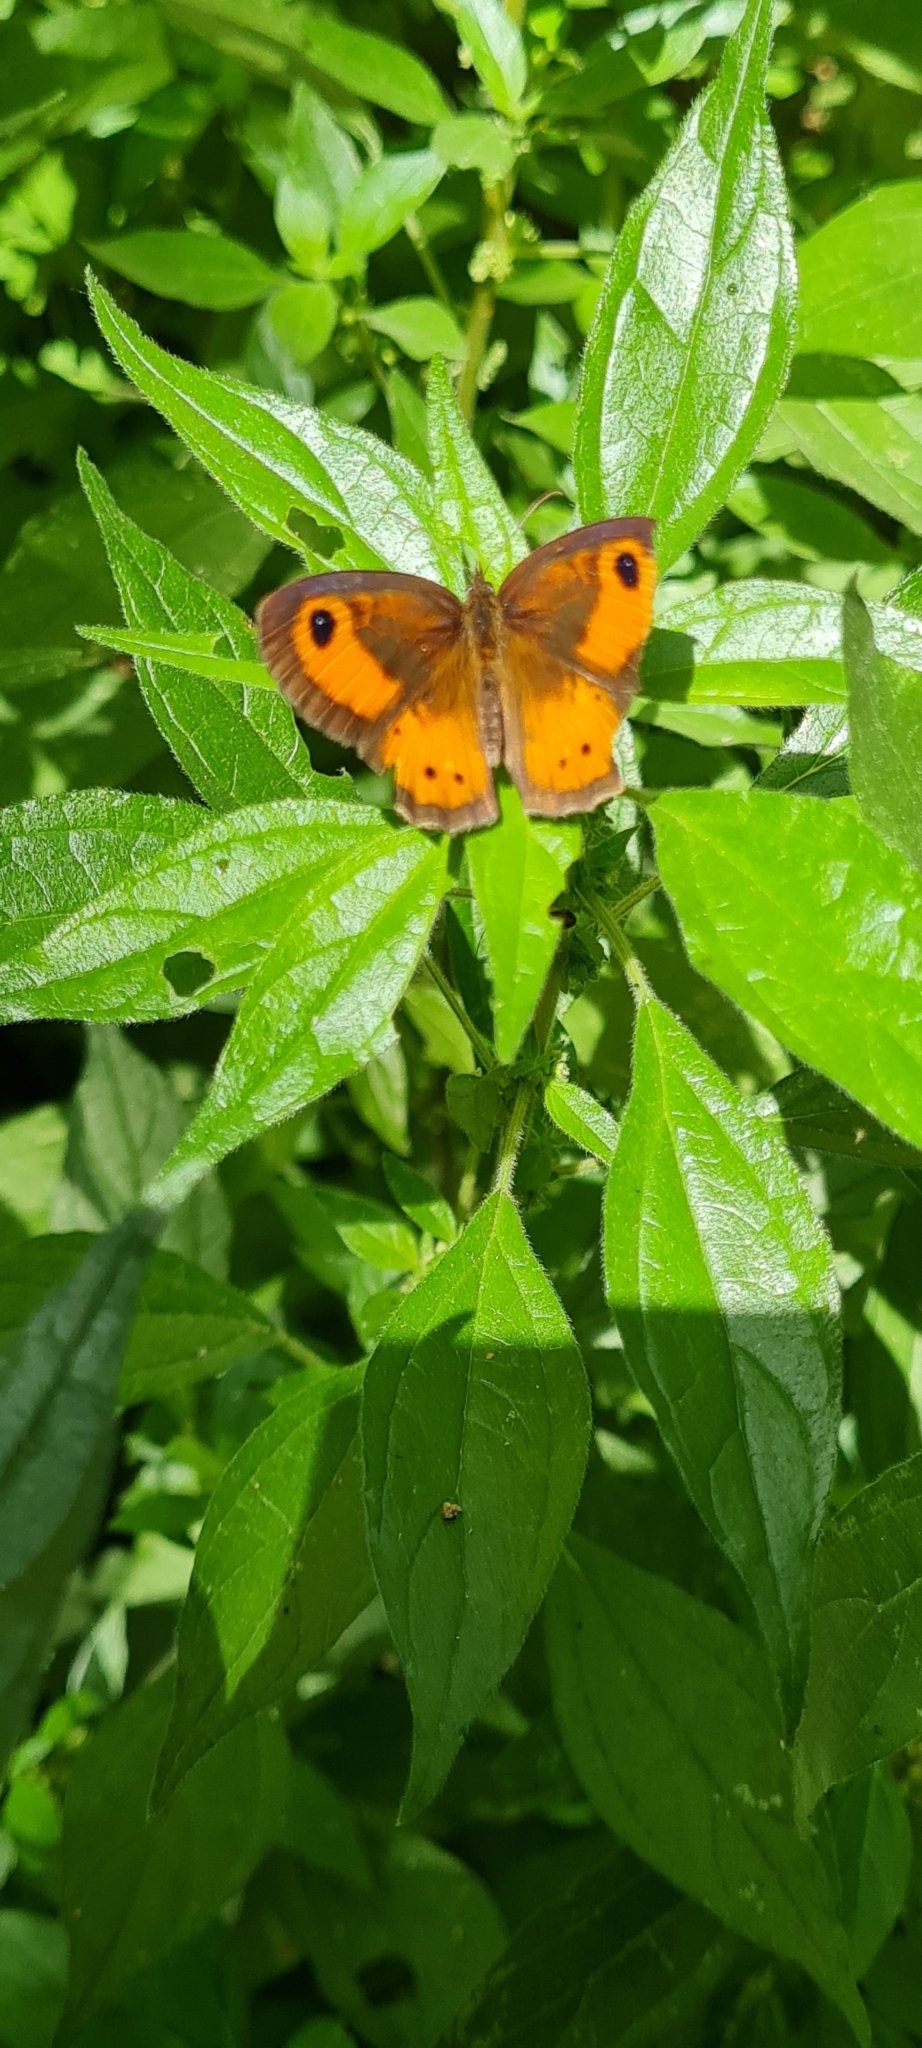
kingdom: Animalia
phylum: Arthropoda
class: Insecta
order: Lepidoptera
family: Nymphalidae
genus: Pyronia
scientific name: Pyronia bathseba
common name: Spanish gatekeeper
